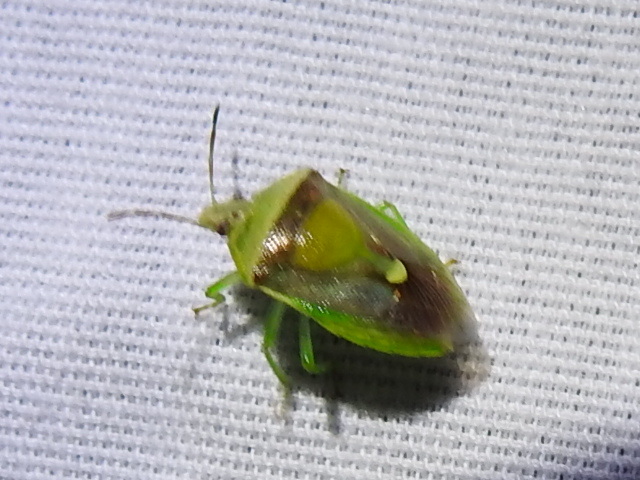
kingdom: Animalia
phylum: Arthropoda
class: Insecta
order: Hemiptera
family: Pentatomidae
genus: Banasa
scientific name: Banasa dimidiata
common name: Green burgundy stink bug
